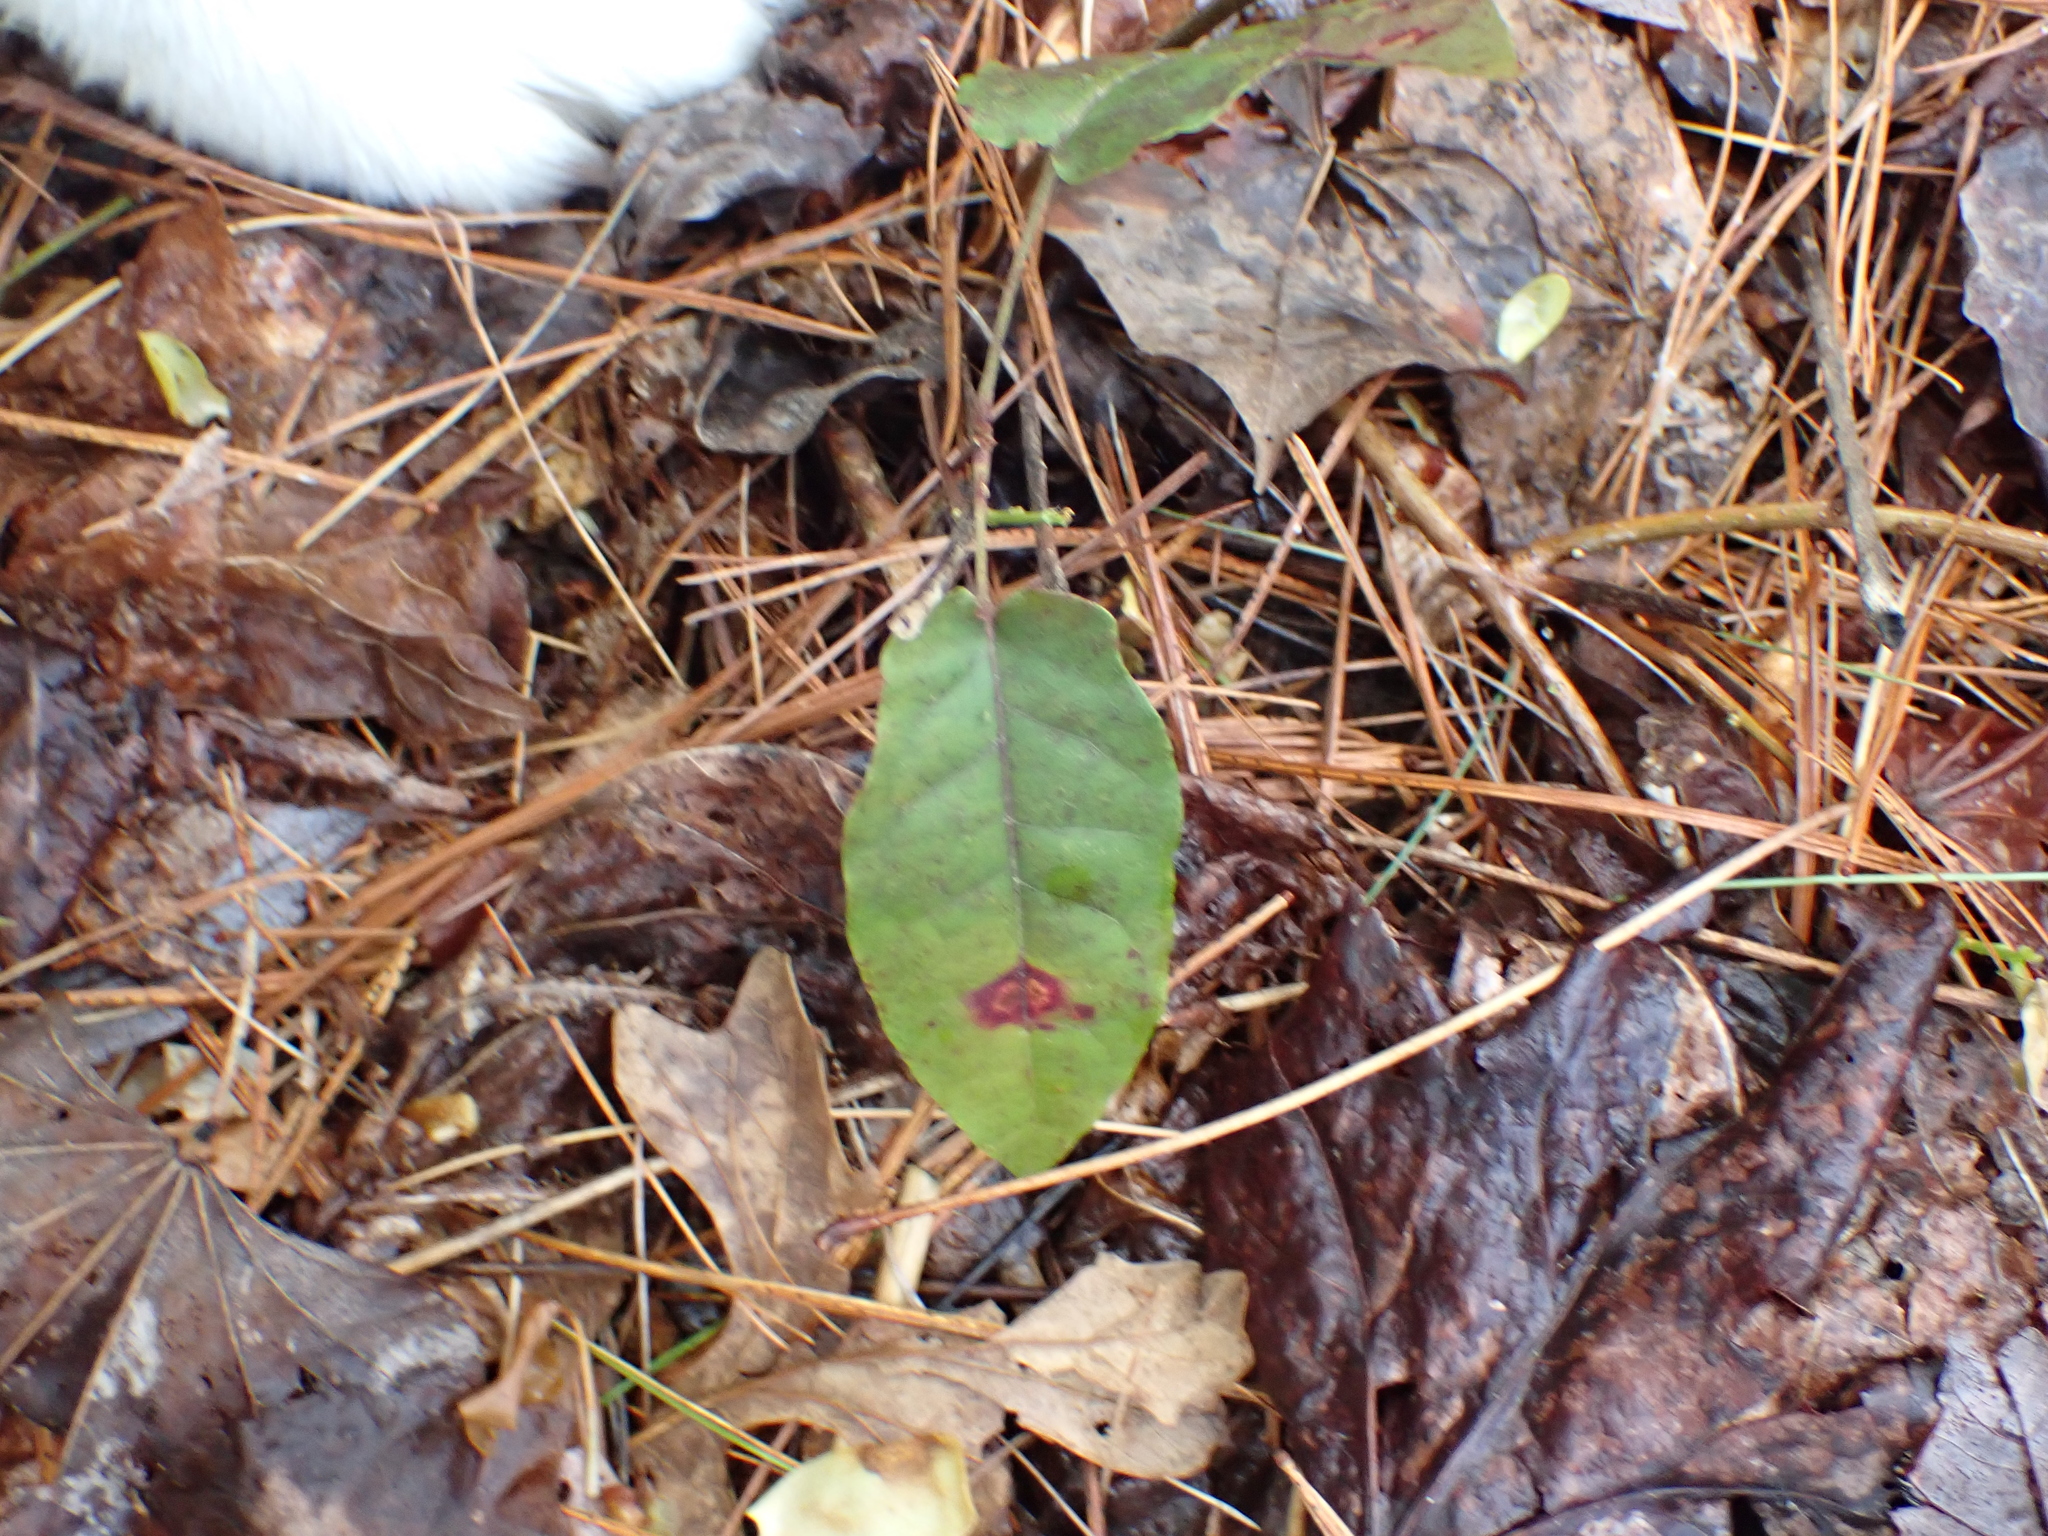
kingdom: Plantae
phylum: Tracheophyta
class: Magnoliopsida
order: Lamiales
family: Bignoniaceae
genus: Bignonia
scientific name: Bignonia capreolata
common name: Crossvine
